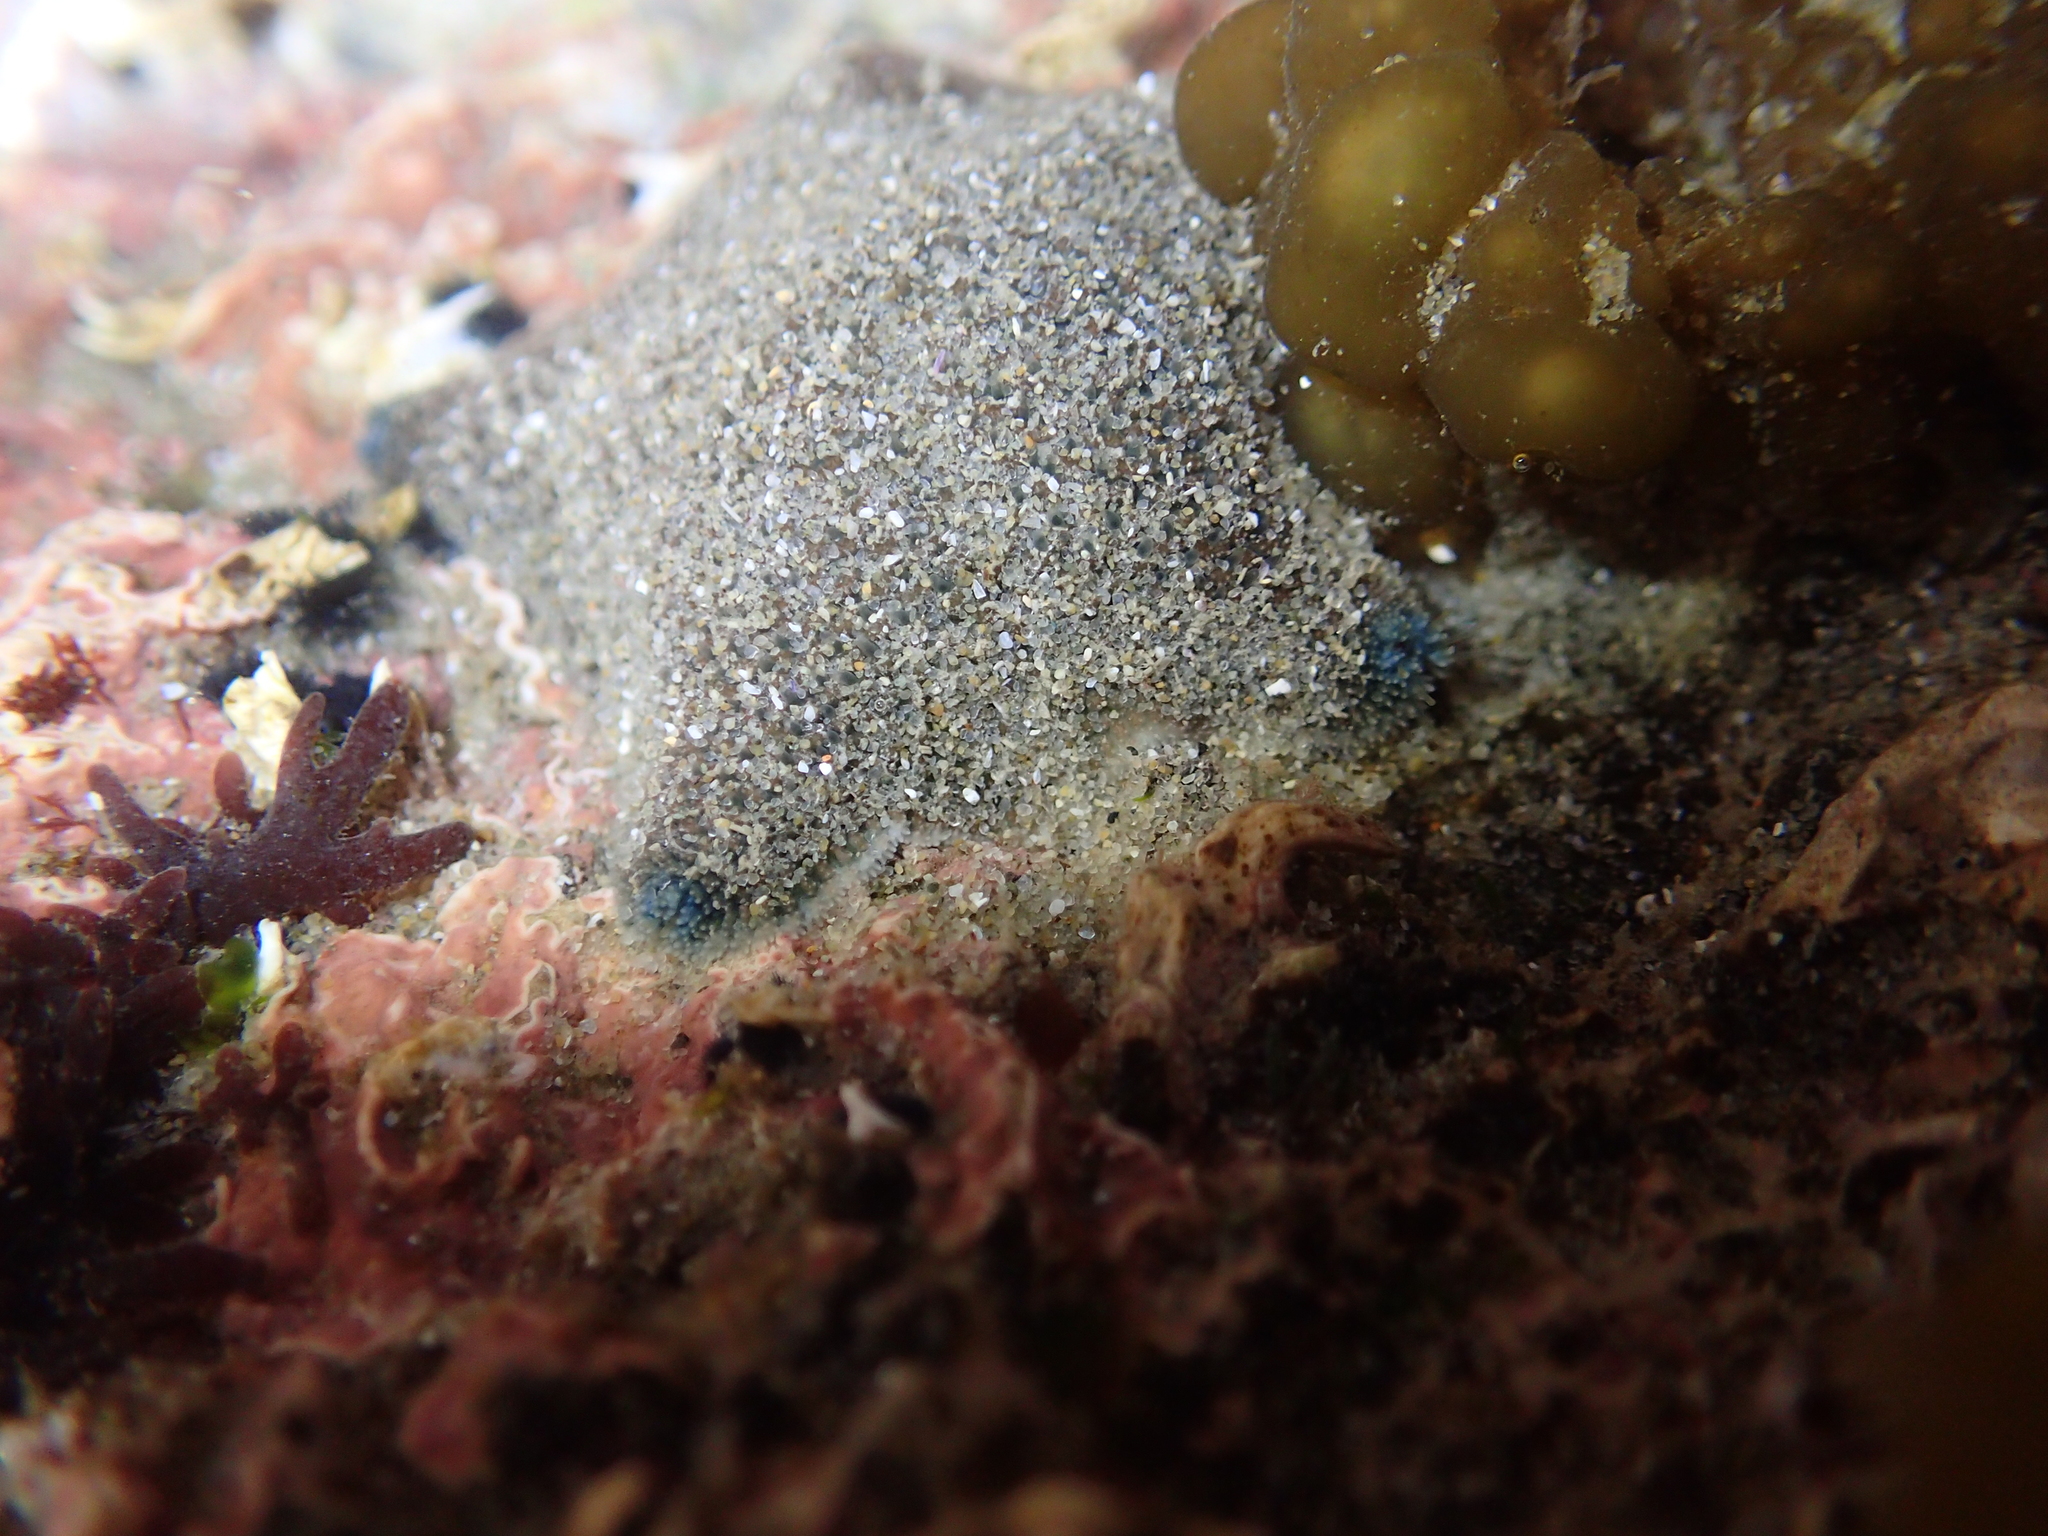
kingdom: Animalia
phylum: Echinodermata
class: Asteroidea
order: Valvatida
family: Asterinidae
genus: Patiriella
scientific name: Patiriella regularis
